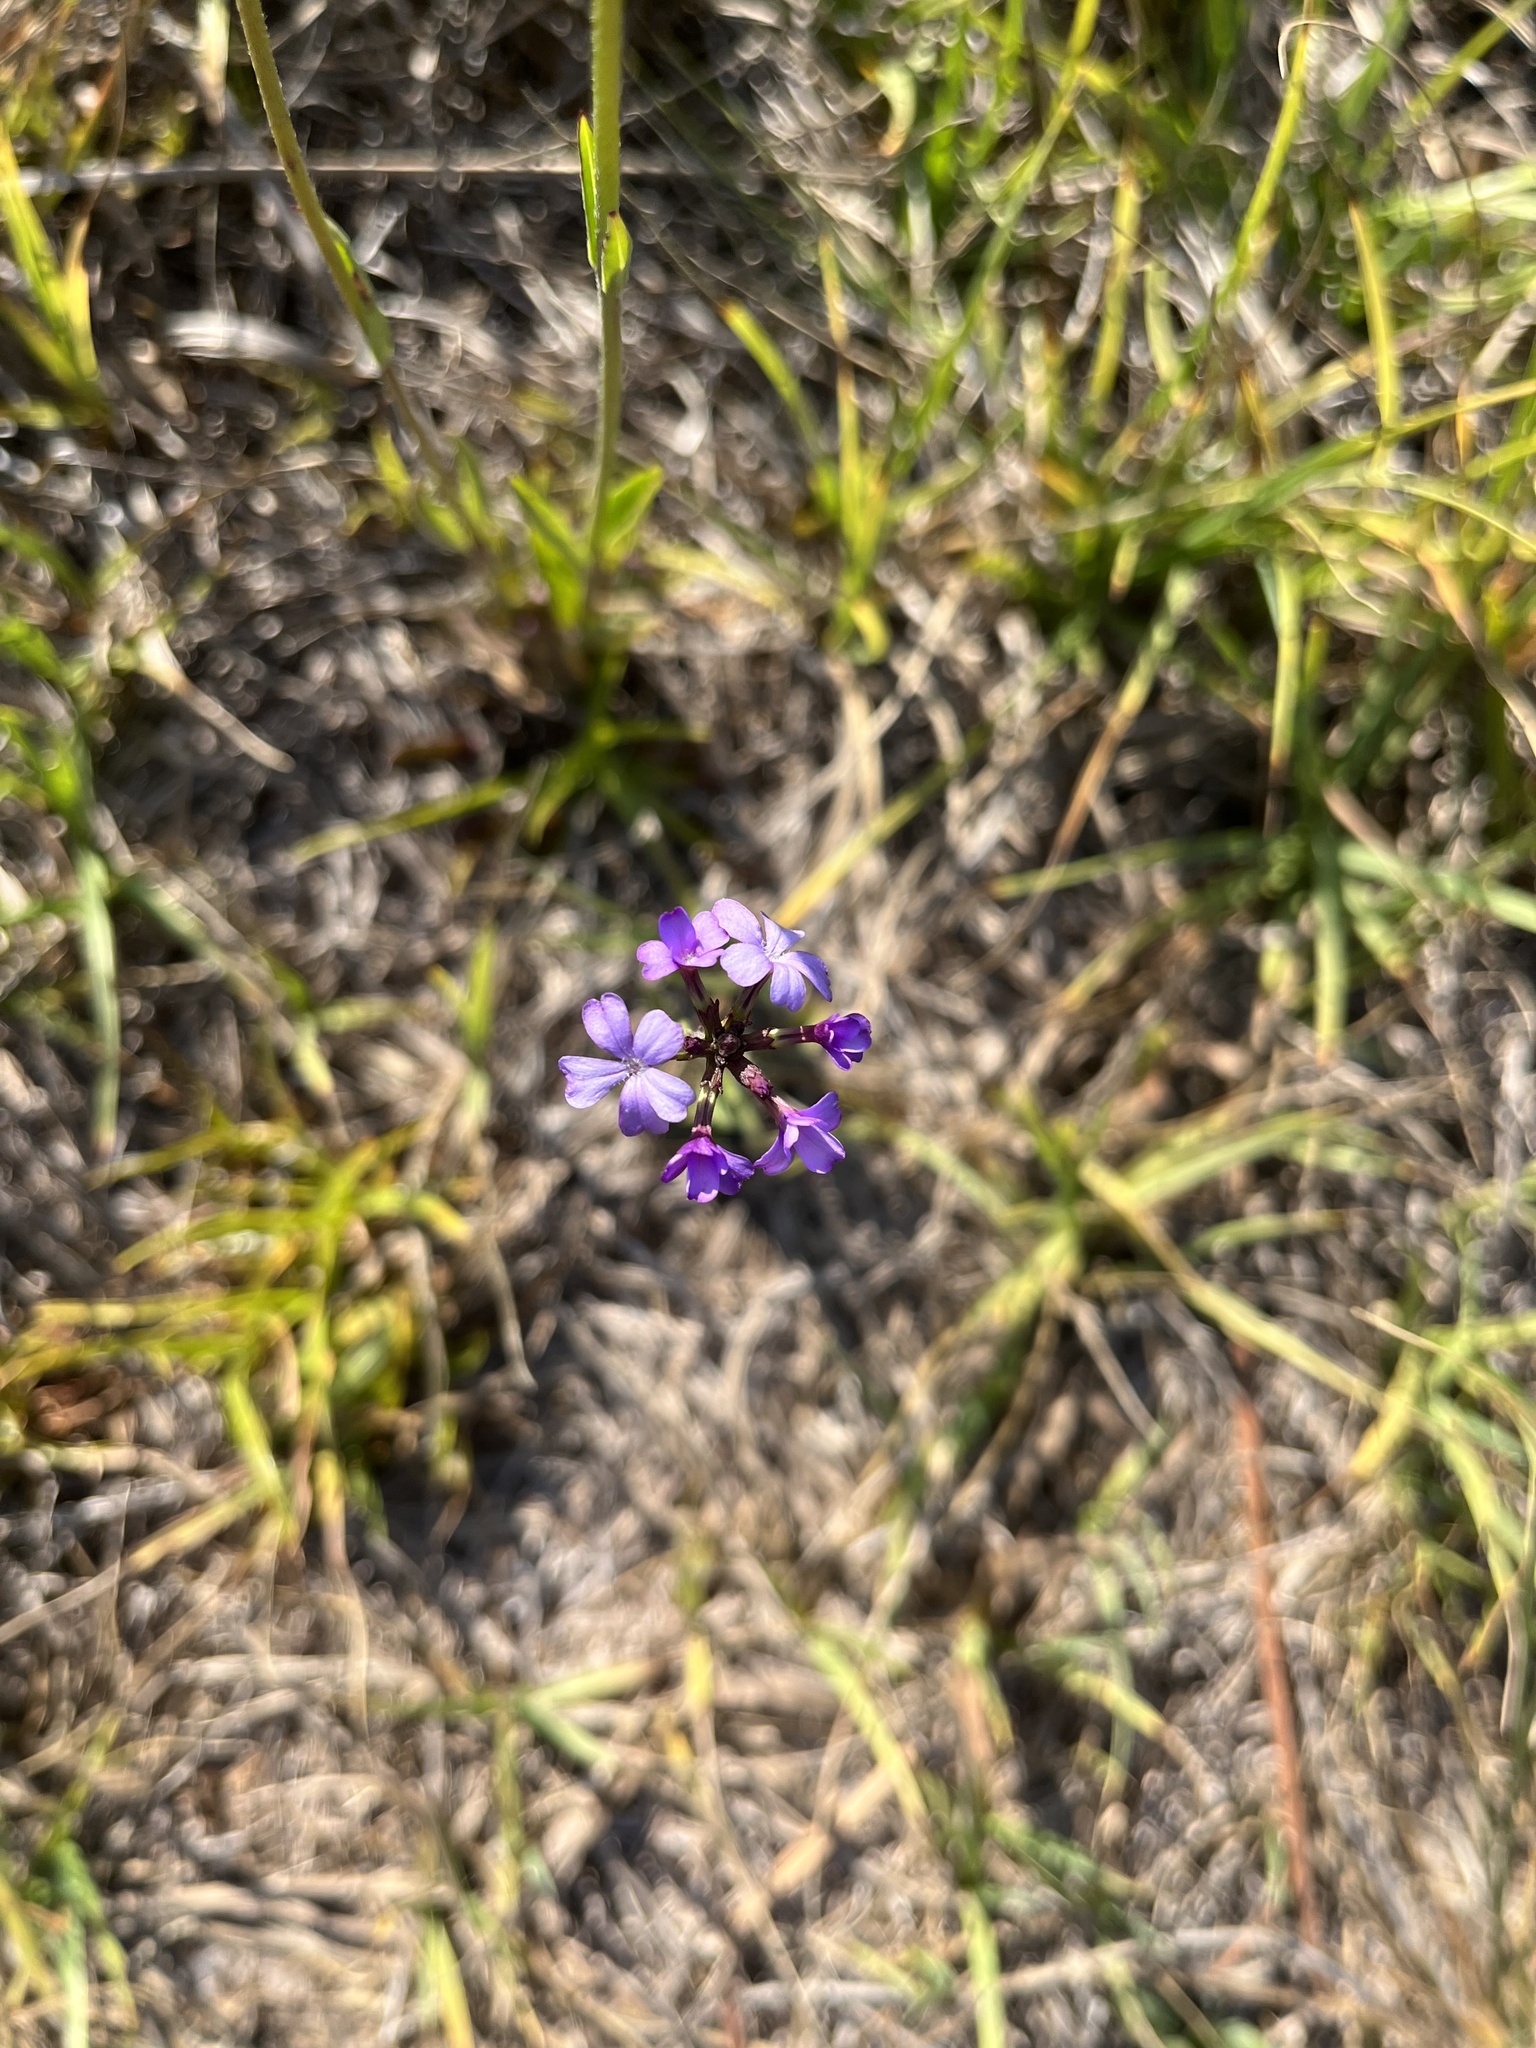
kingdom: Plantae
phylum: Tracheophyta
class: Magnoliopsida
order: Lamiales
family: Orobanchaceae
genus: Buchnera
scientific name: Buchnera floridana
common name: Florida bluehearts
